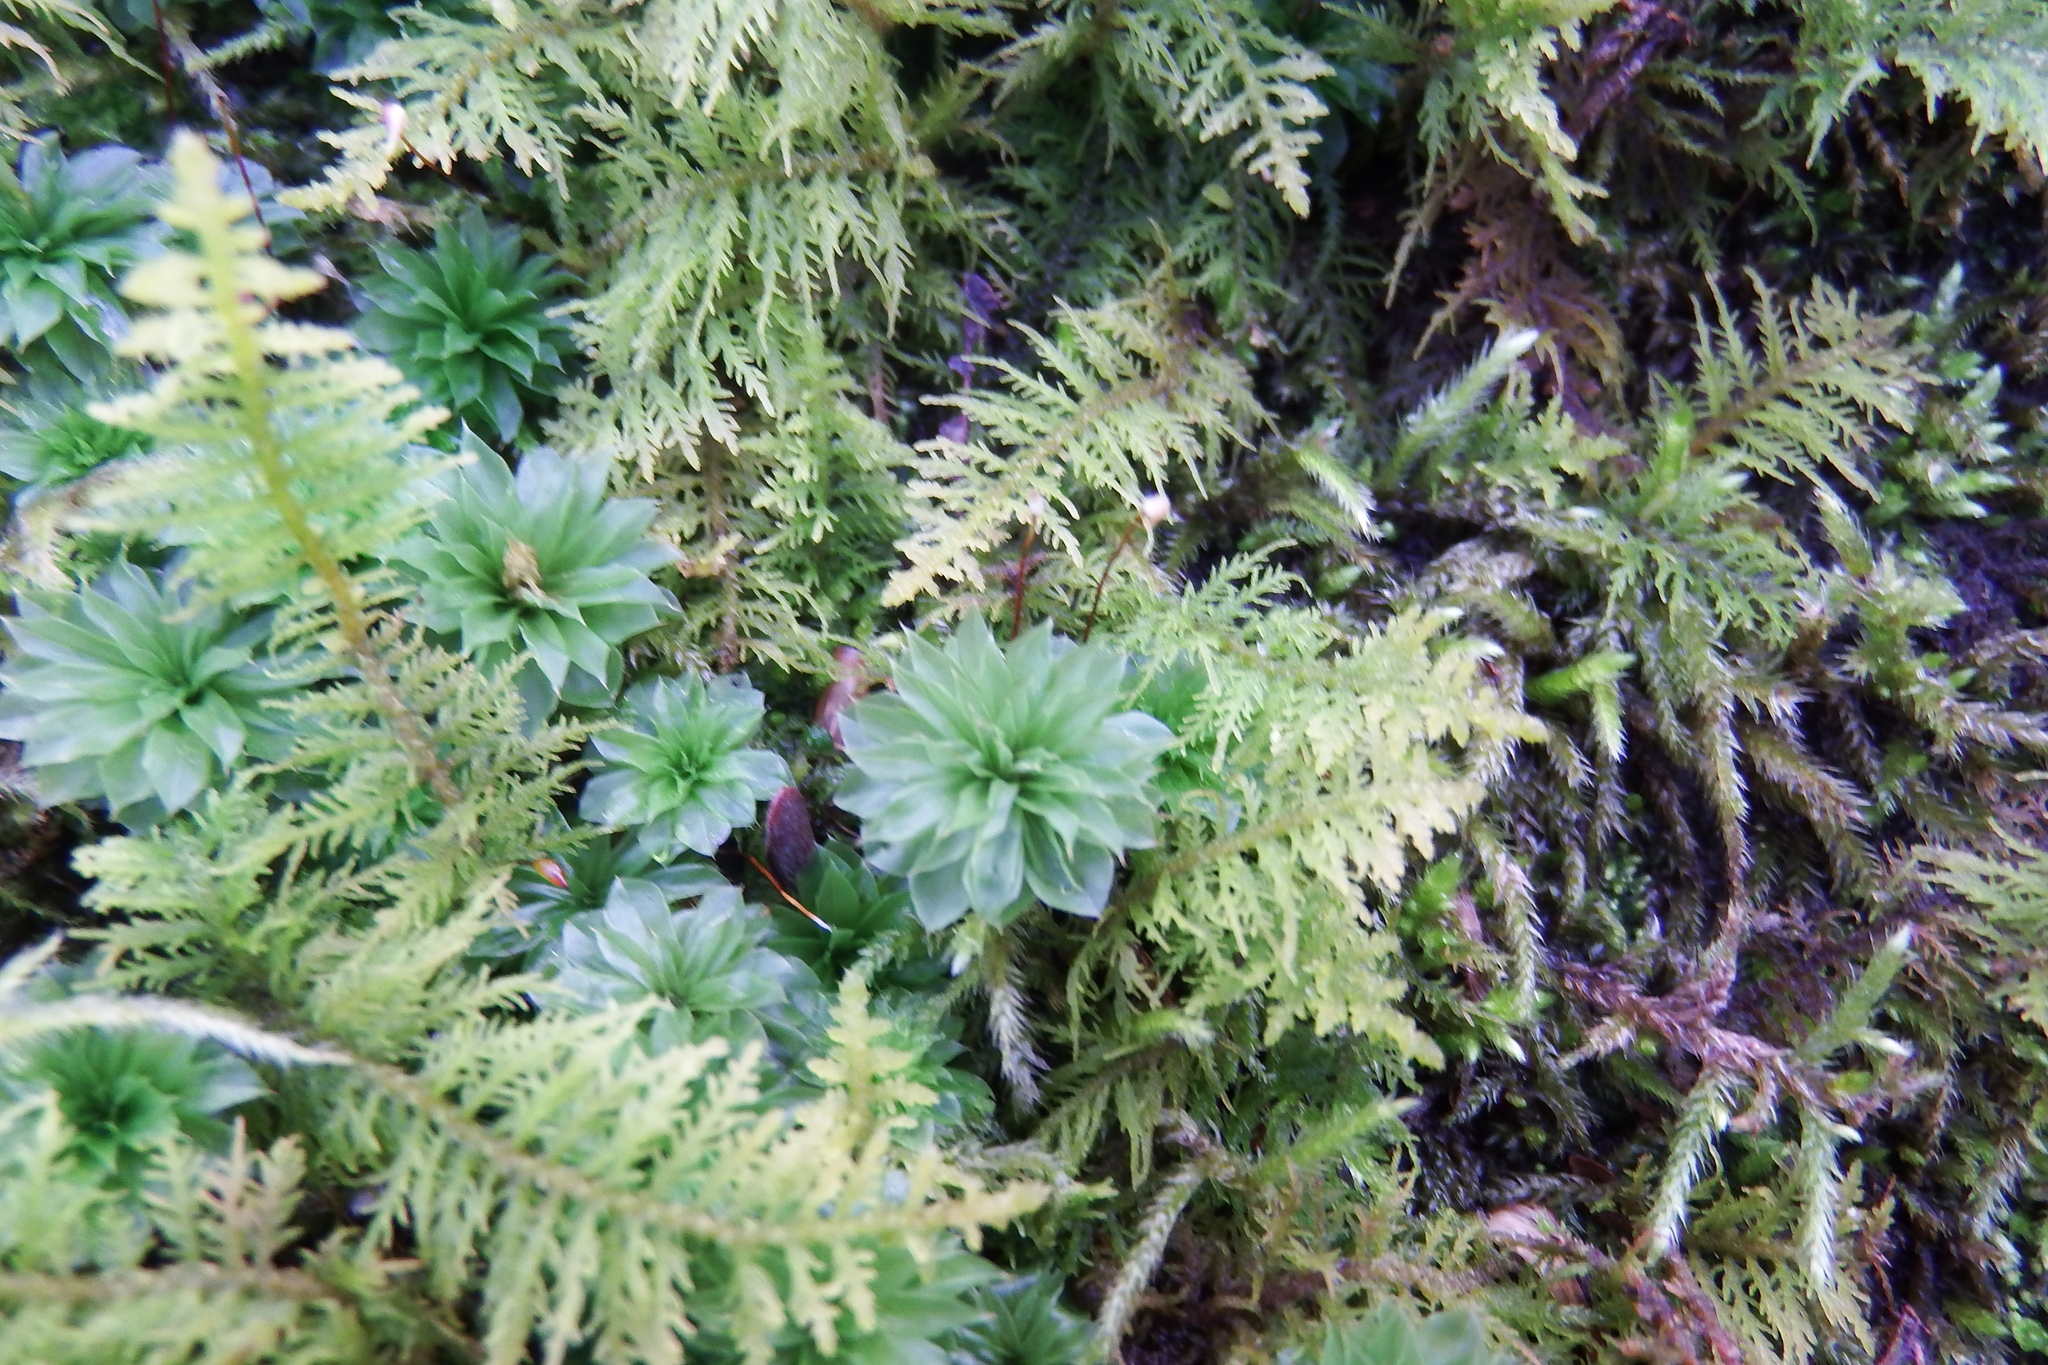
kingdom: Plantae
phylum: Bryophyta
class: Bryopsida
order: Bryales
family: Bryaceae
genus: Rhodobryum
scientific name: Rhodobryum ontariense
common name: Ontario rhodobryum moss
